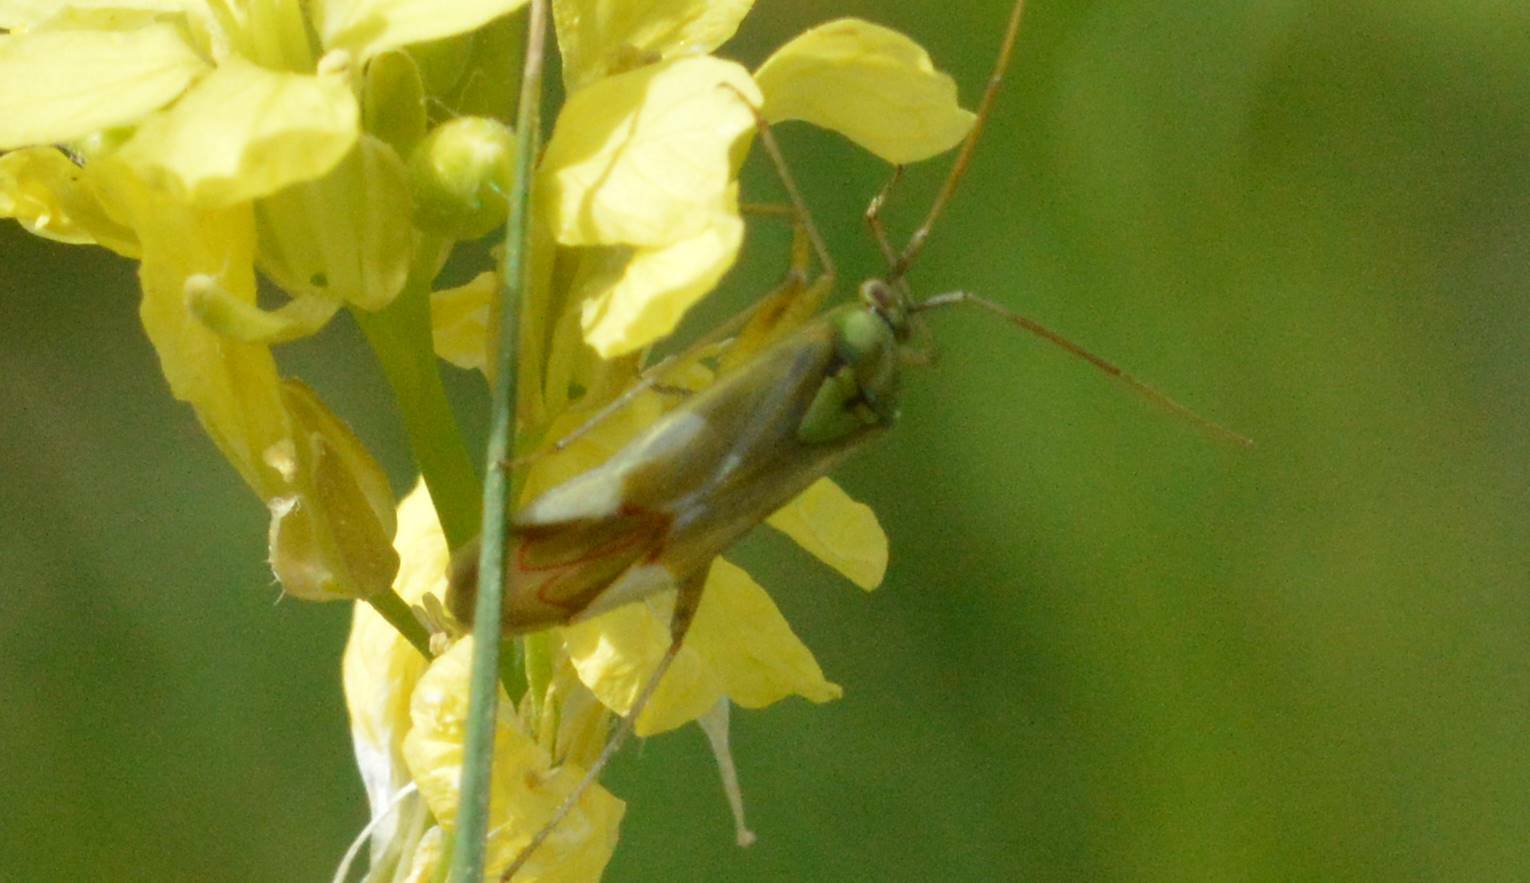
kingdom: Animalia
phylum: Arthropoda
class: Insecta
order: Hemiptera
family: Miridae
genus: Reuterista
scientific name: Reuterista instabilis
